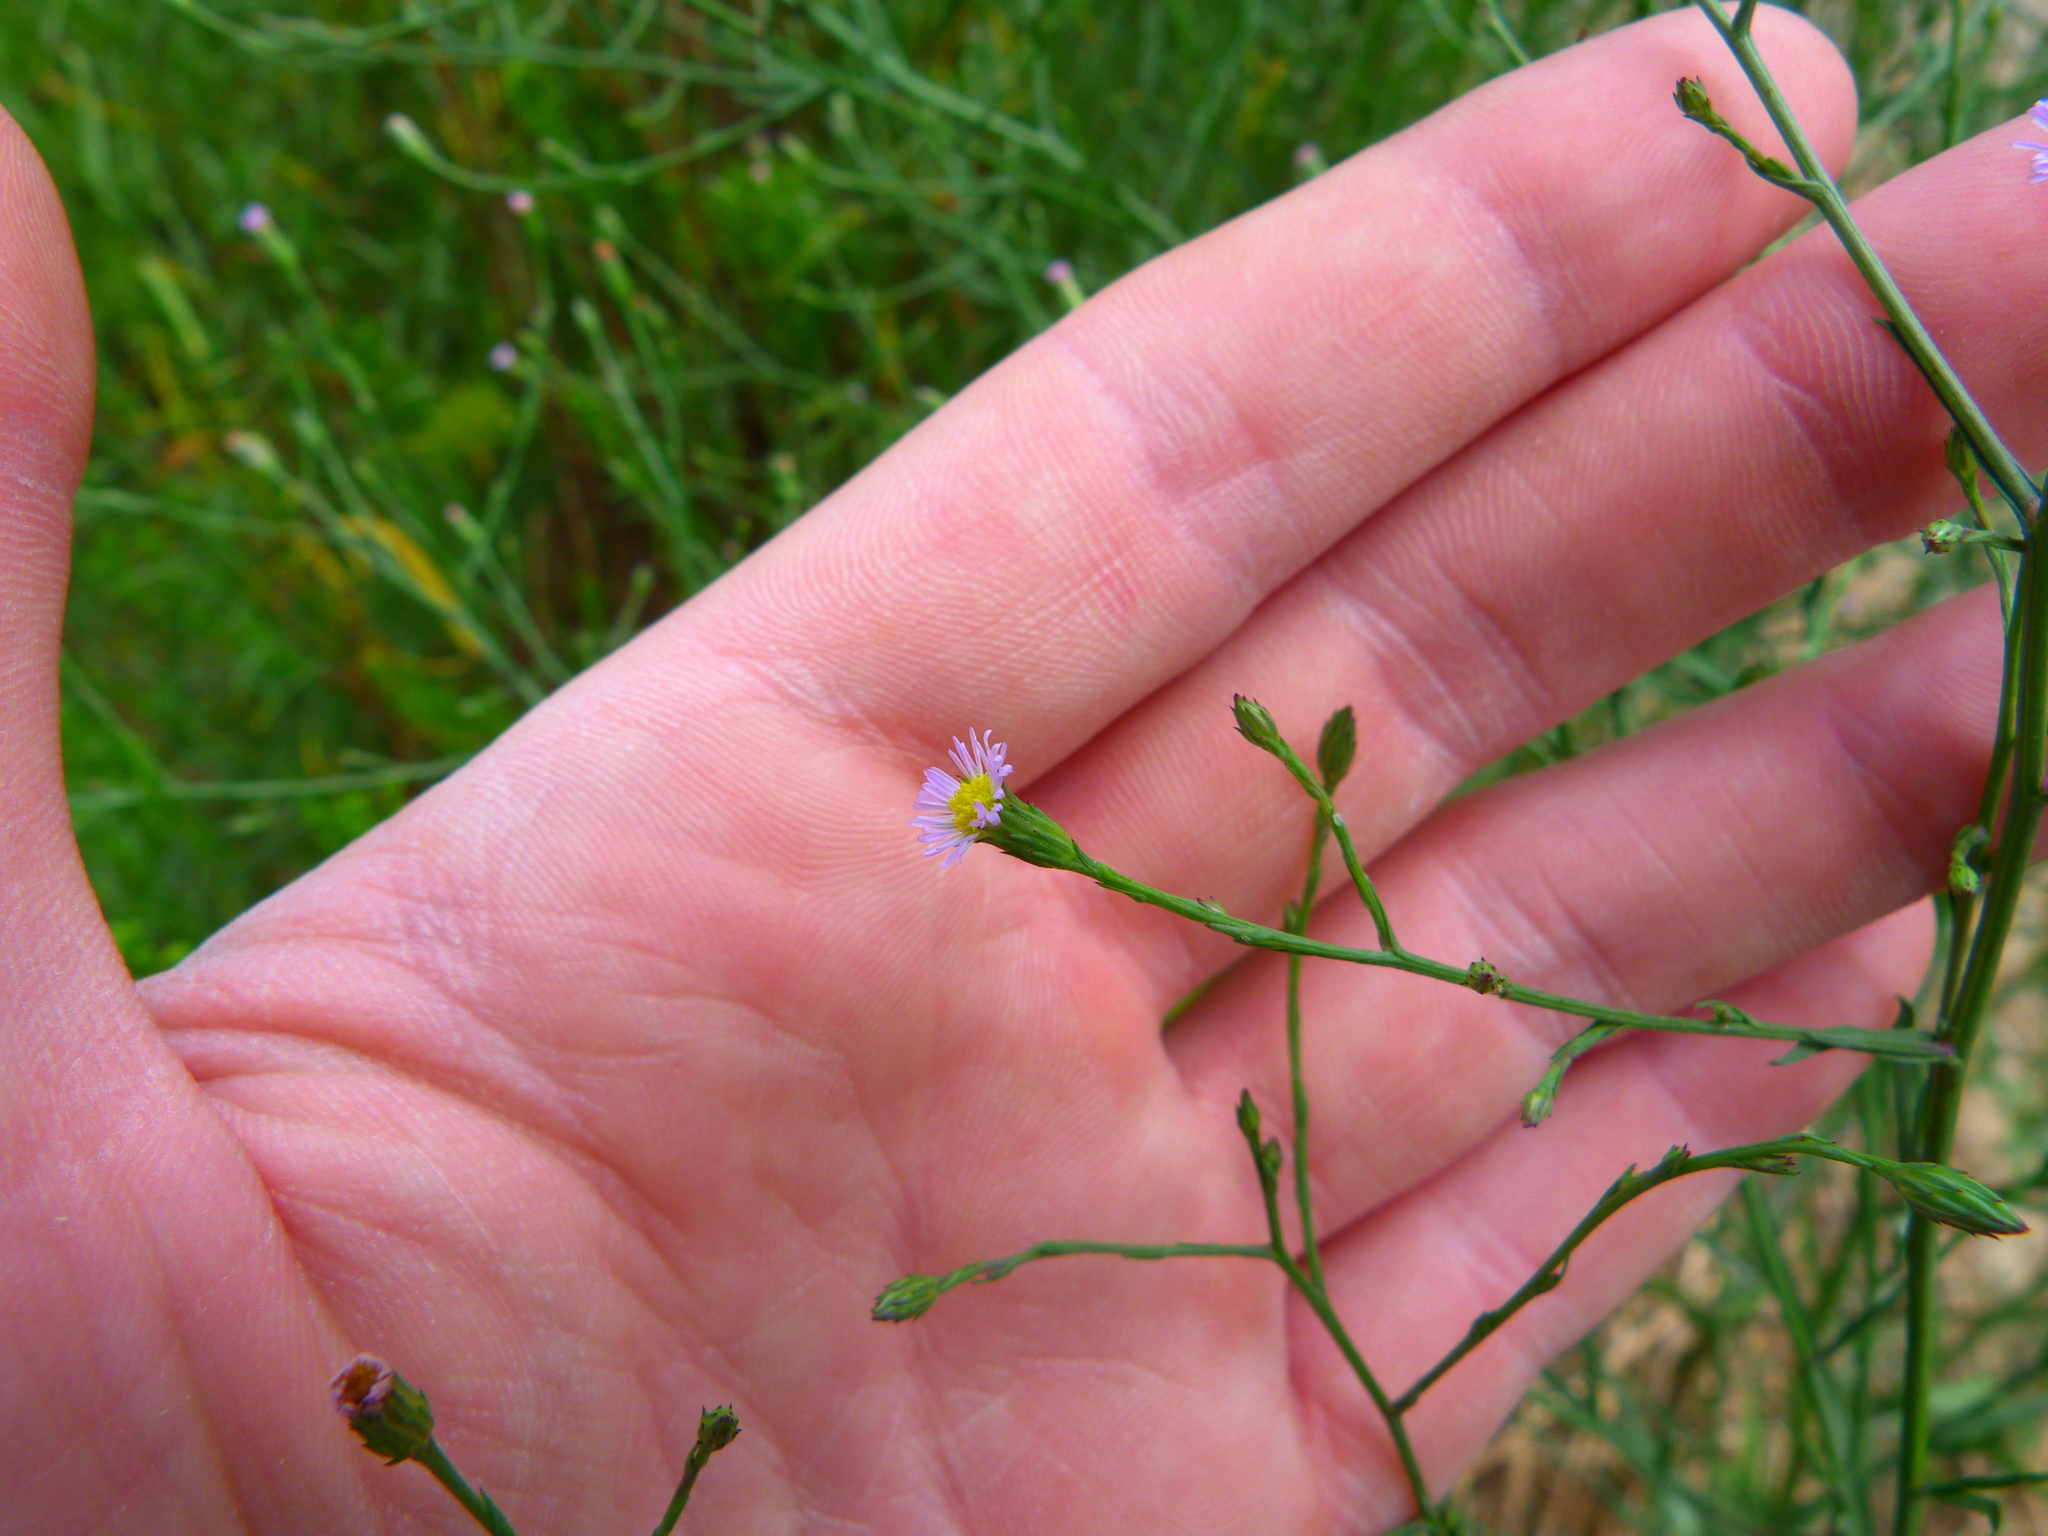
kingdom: Plantae
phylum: Tracheophyta
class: Magnoliopsida
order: Asterales
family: Asteraceae
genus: Symphyotrichum
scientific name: Symphyotrichum subulatum
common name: Annual saltmarsh aster
